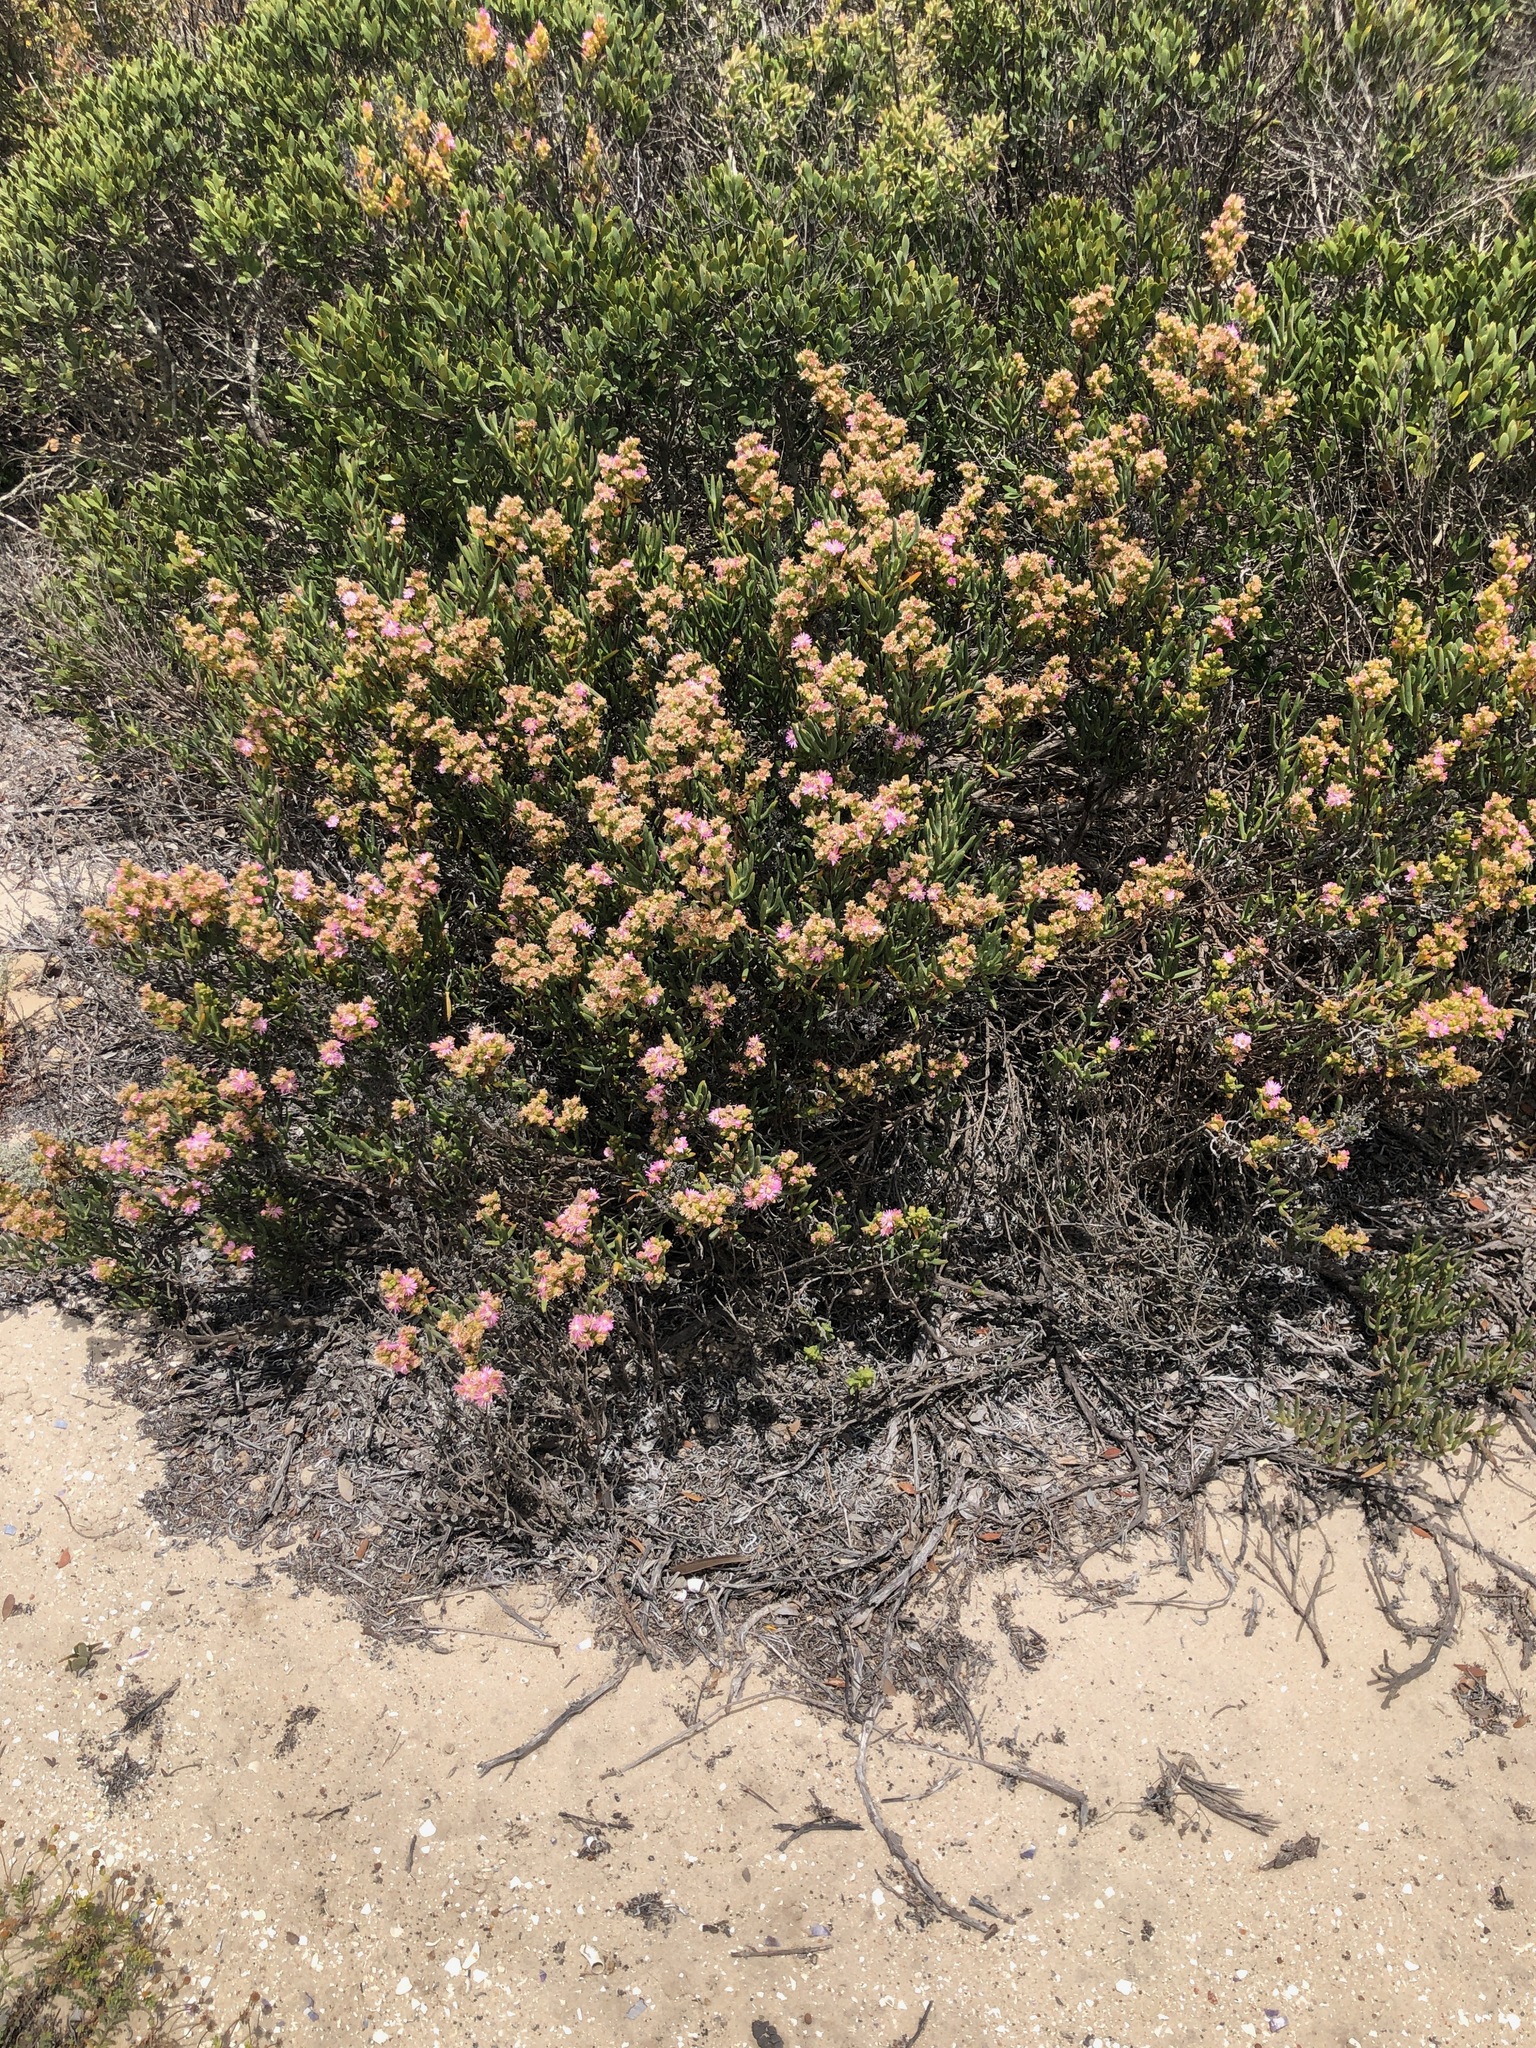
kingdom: Plantae
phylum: Tracheophyta
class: Magnoliopsida
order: Caryophyllales
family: Aizoaceae
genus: Ruschia
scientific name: Ruschia macowanii
